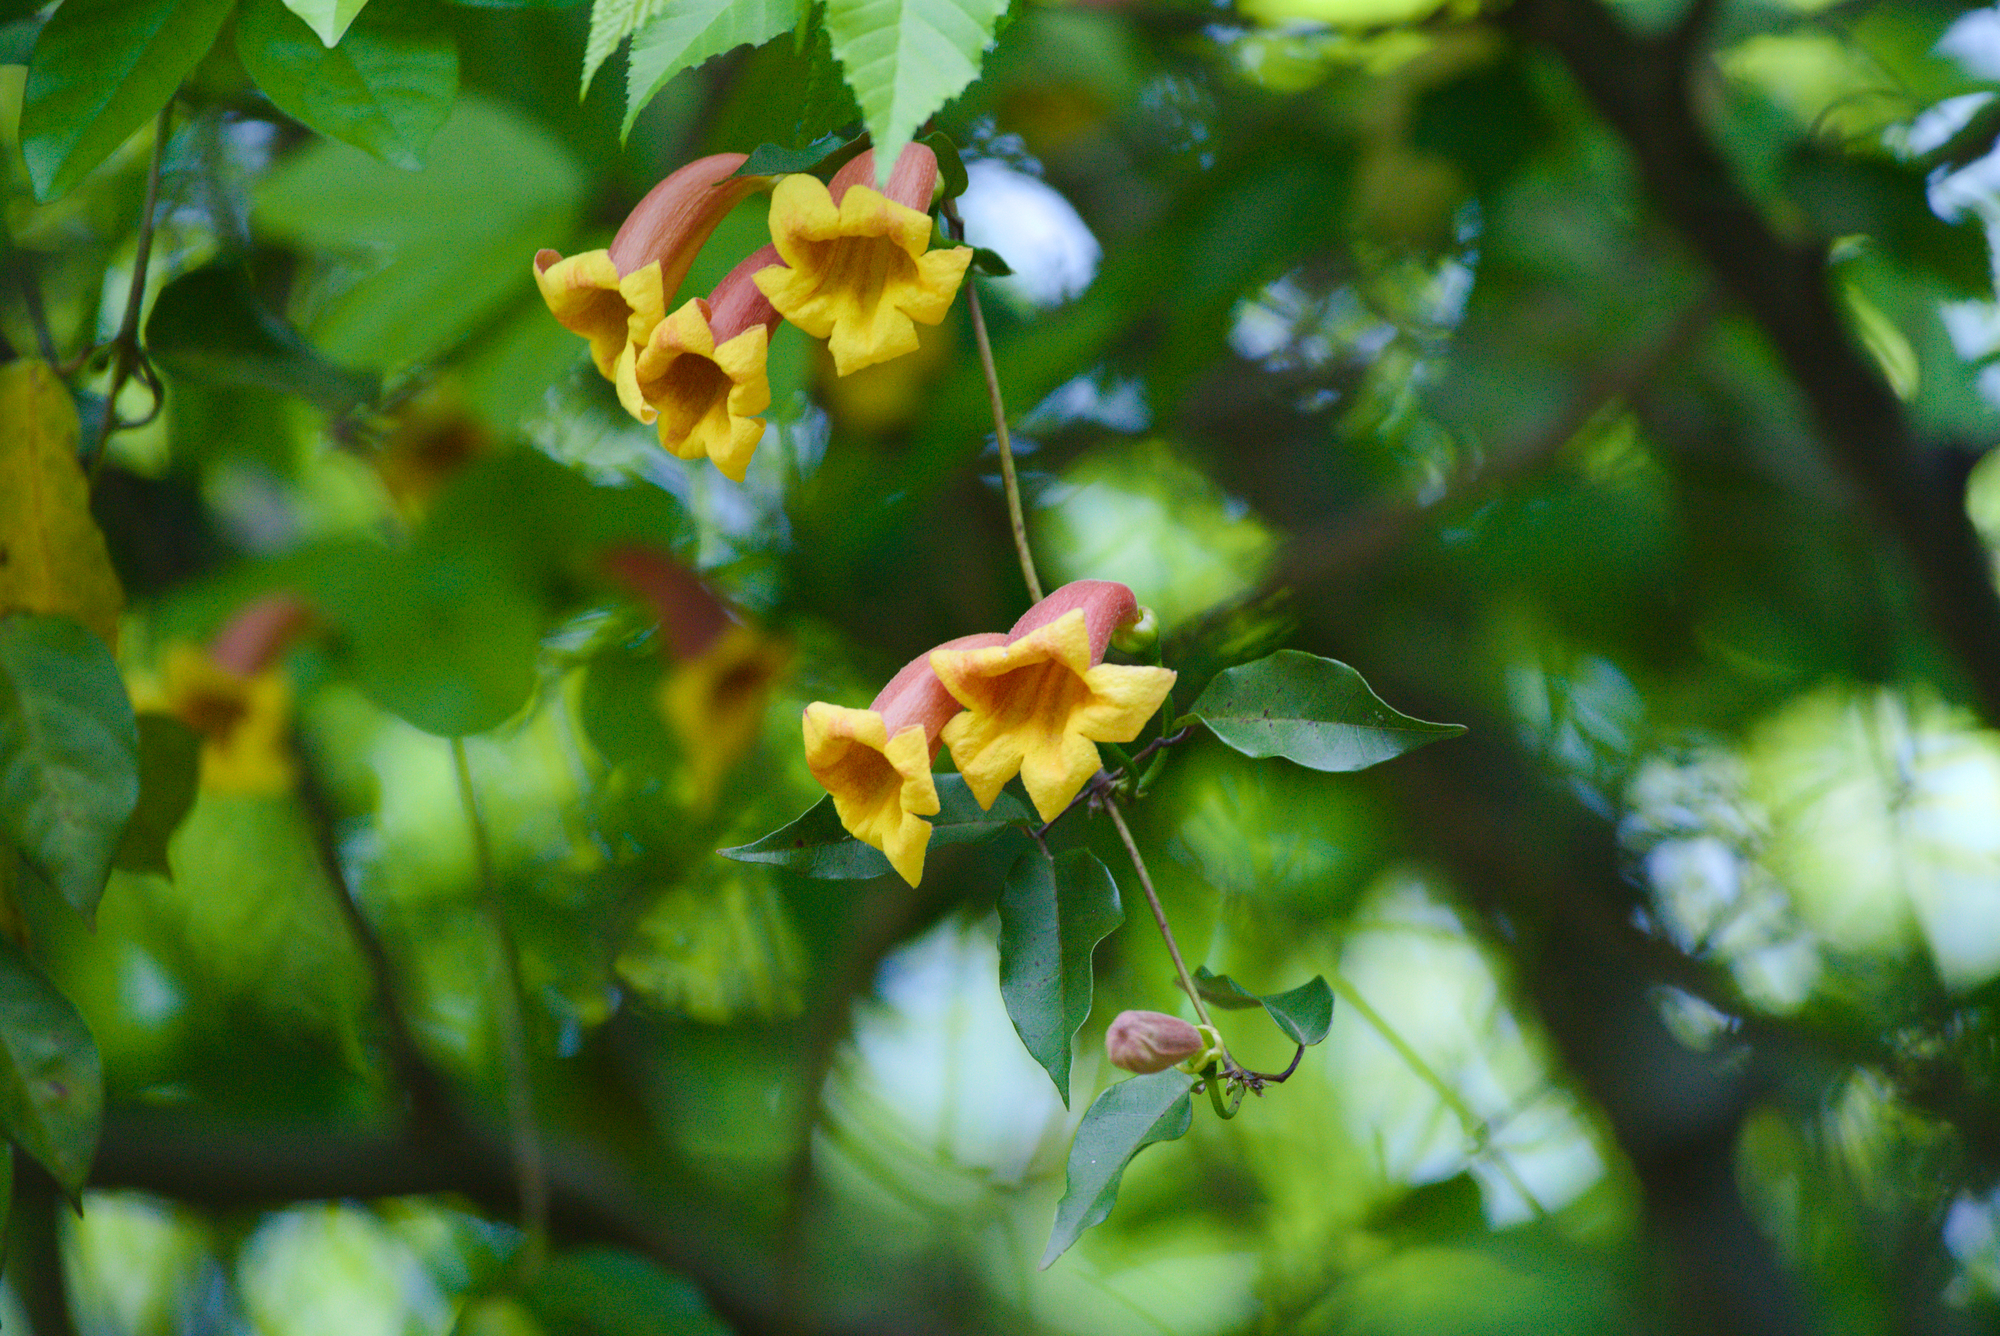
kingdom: Plantae
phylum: Tracheophyta
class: Magnoliopsida
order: Lamiales
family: Bignoniaceae
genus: Bignonia
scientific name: Bignonia capreolata
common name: Crossvine
